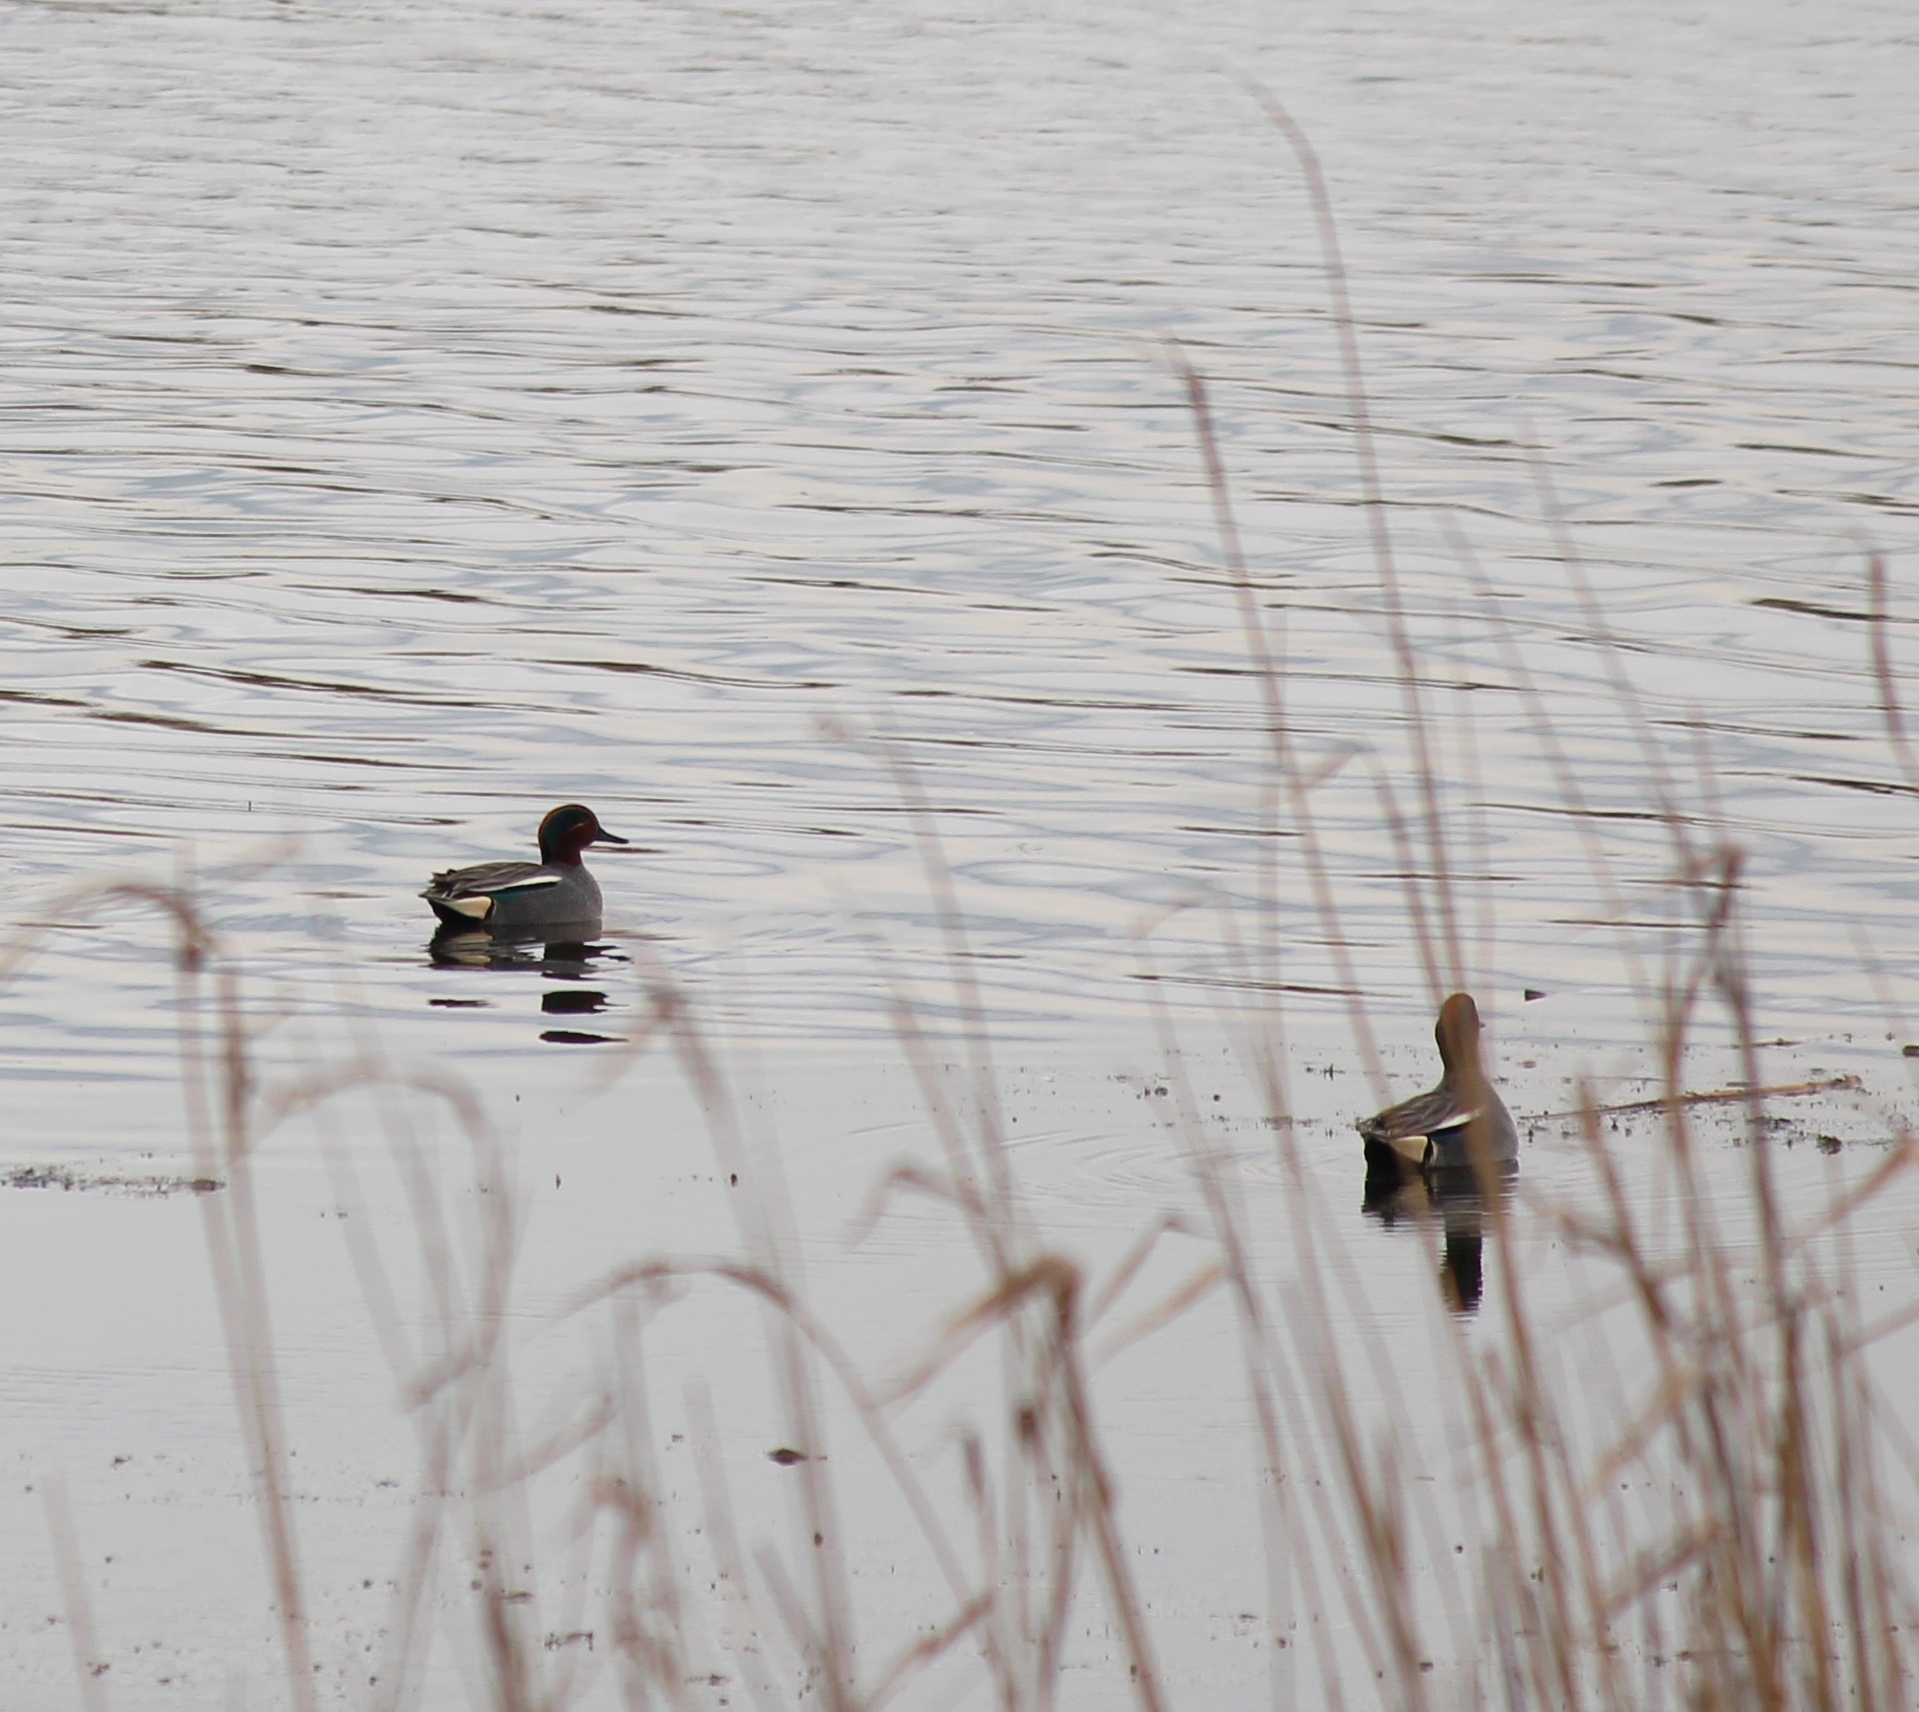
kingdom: Animalia
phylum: Chordata
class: Aves
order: Anseriformes
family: Anatidae
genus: Anas
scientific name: Anas crecca
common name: Eurasian teal
